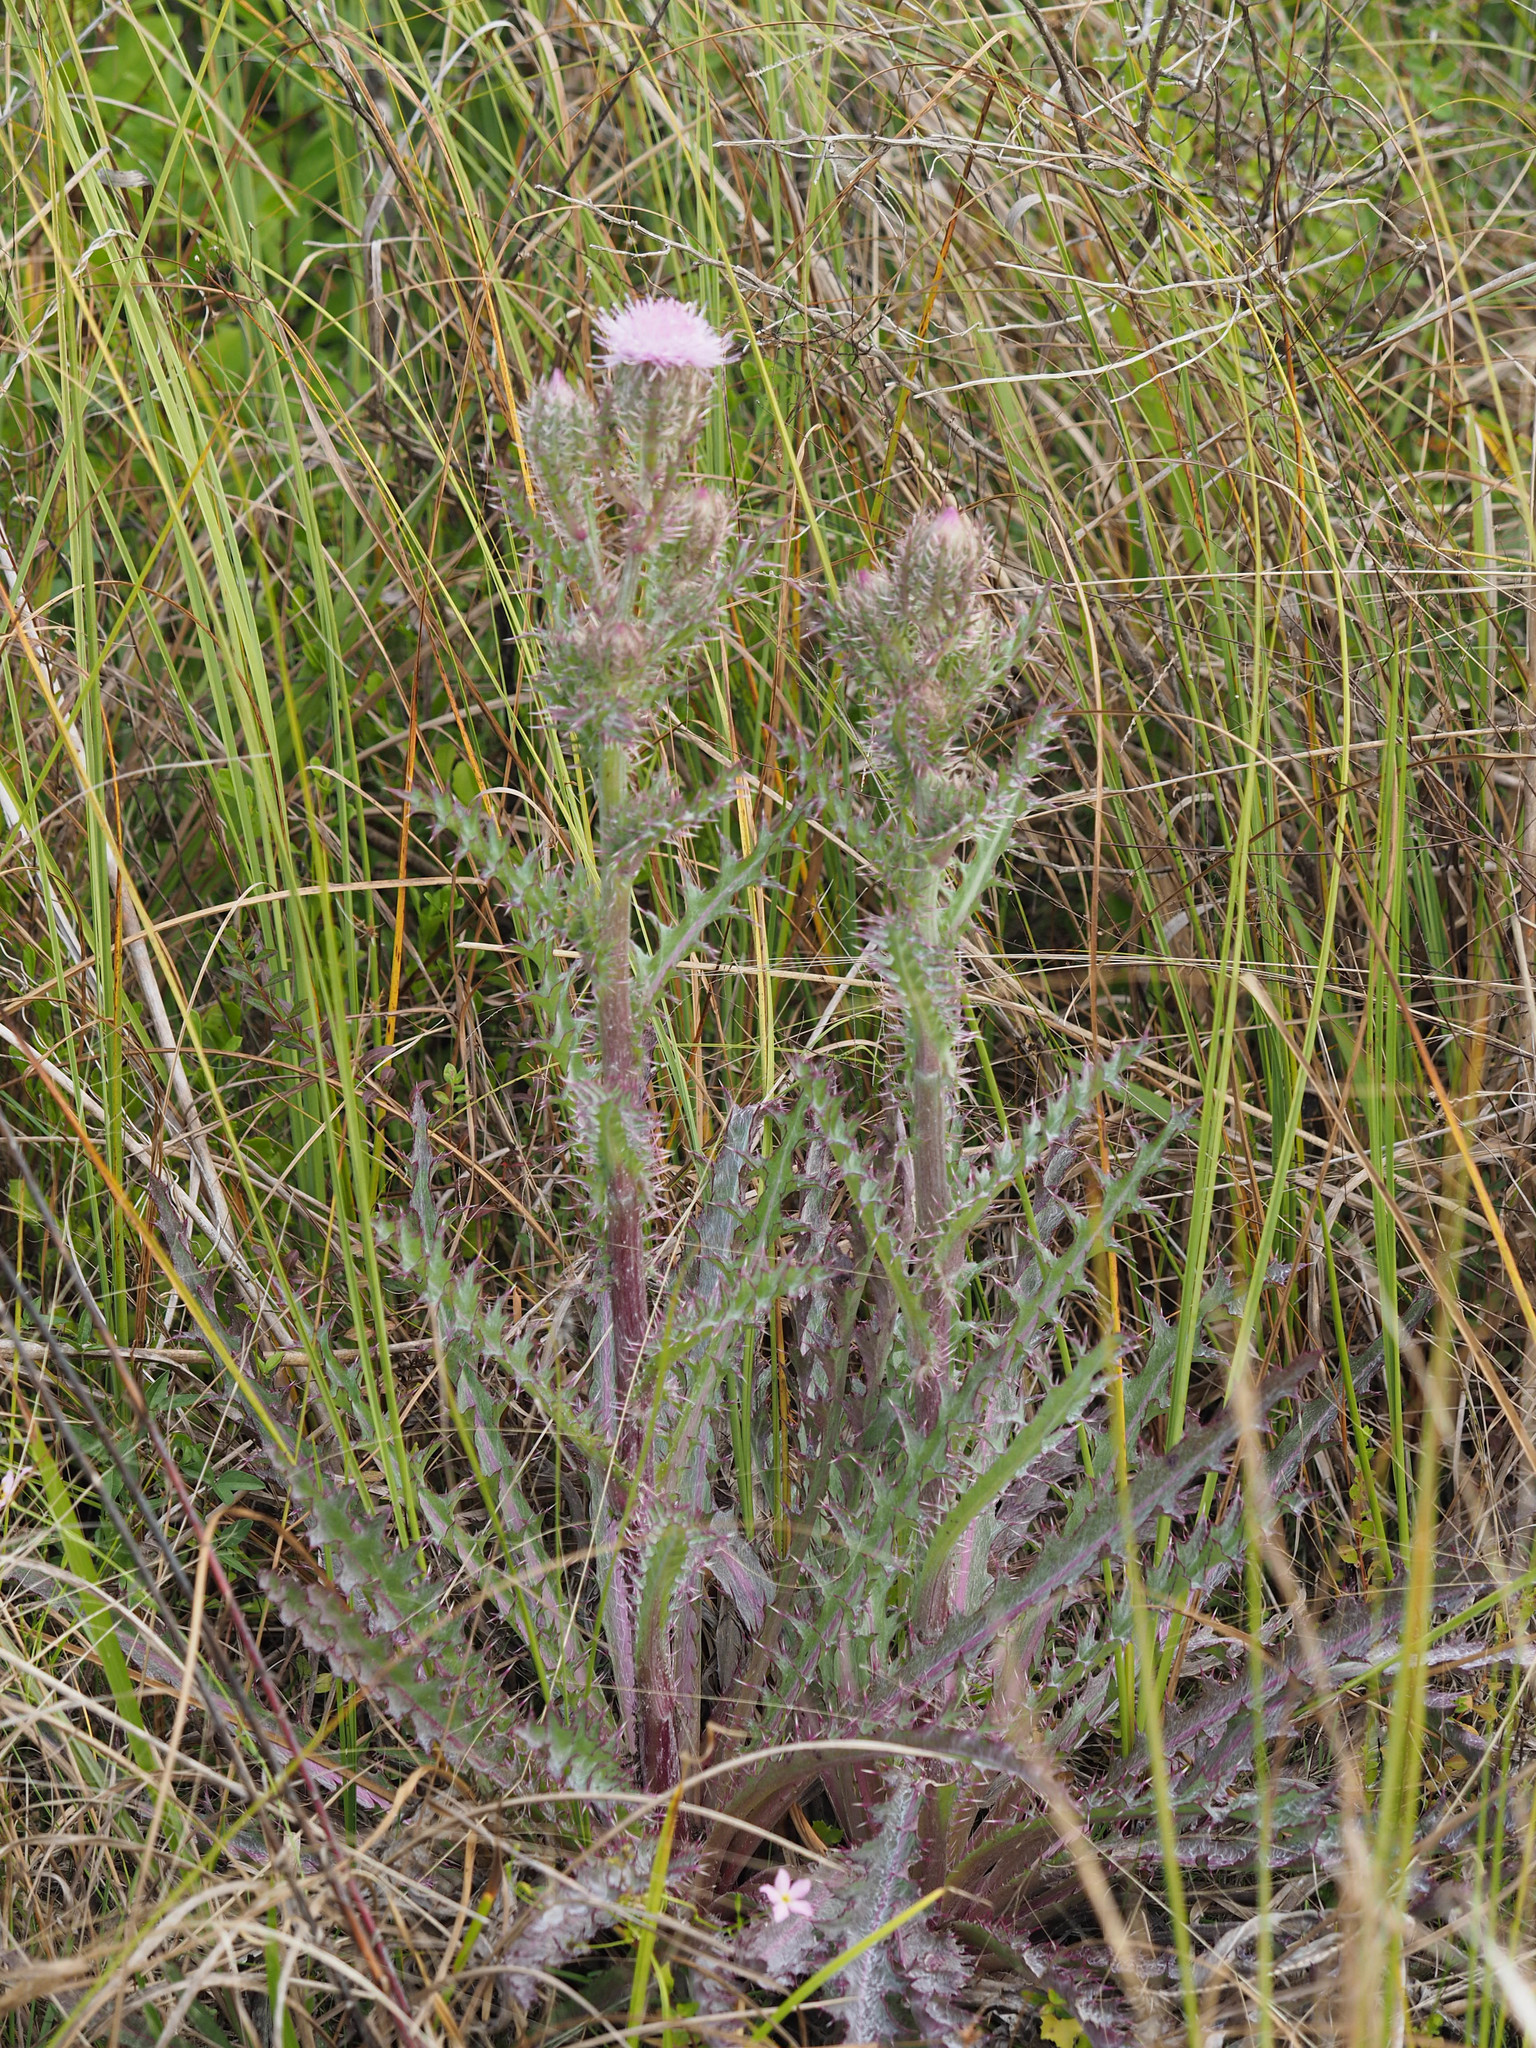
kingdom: Plantae
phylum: Tracheophyta
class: Magnoliopsida
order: Asterales
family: Asteraceae
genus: Cirsium
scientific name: Cirsium horridulum
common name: Bristly thistle
